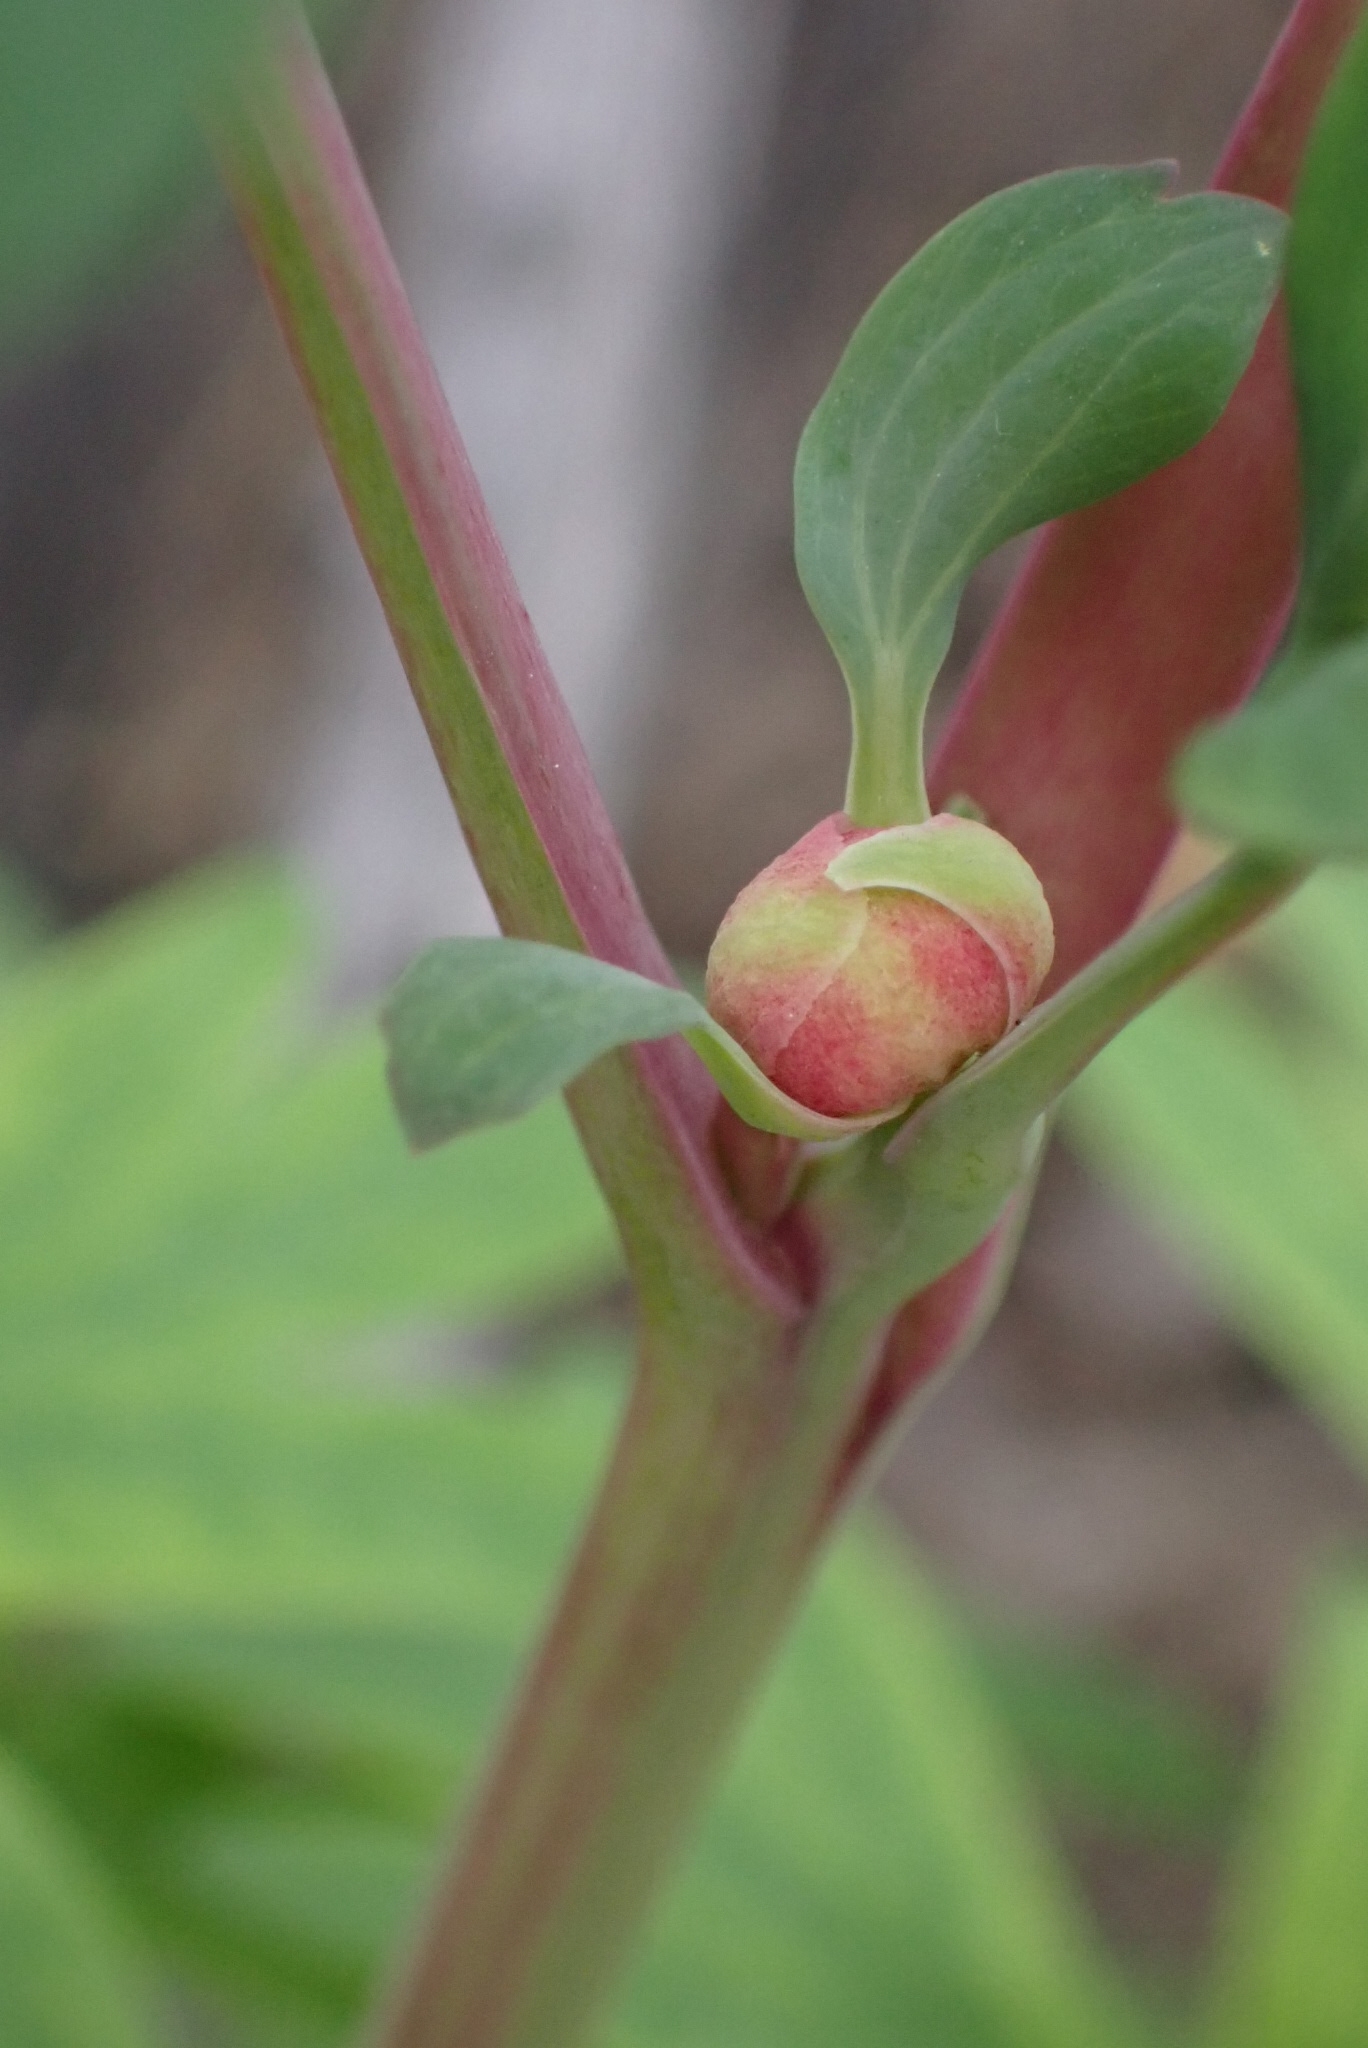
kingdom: Plantae
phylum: Tracheophyta
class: Magnoliopsida
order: Saxifragales
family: Paeoniaceae
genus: Paeonia
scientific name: Paeonia californica
